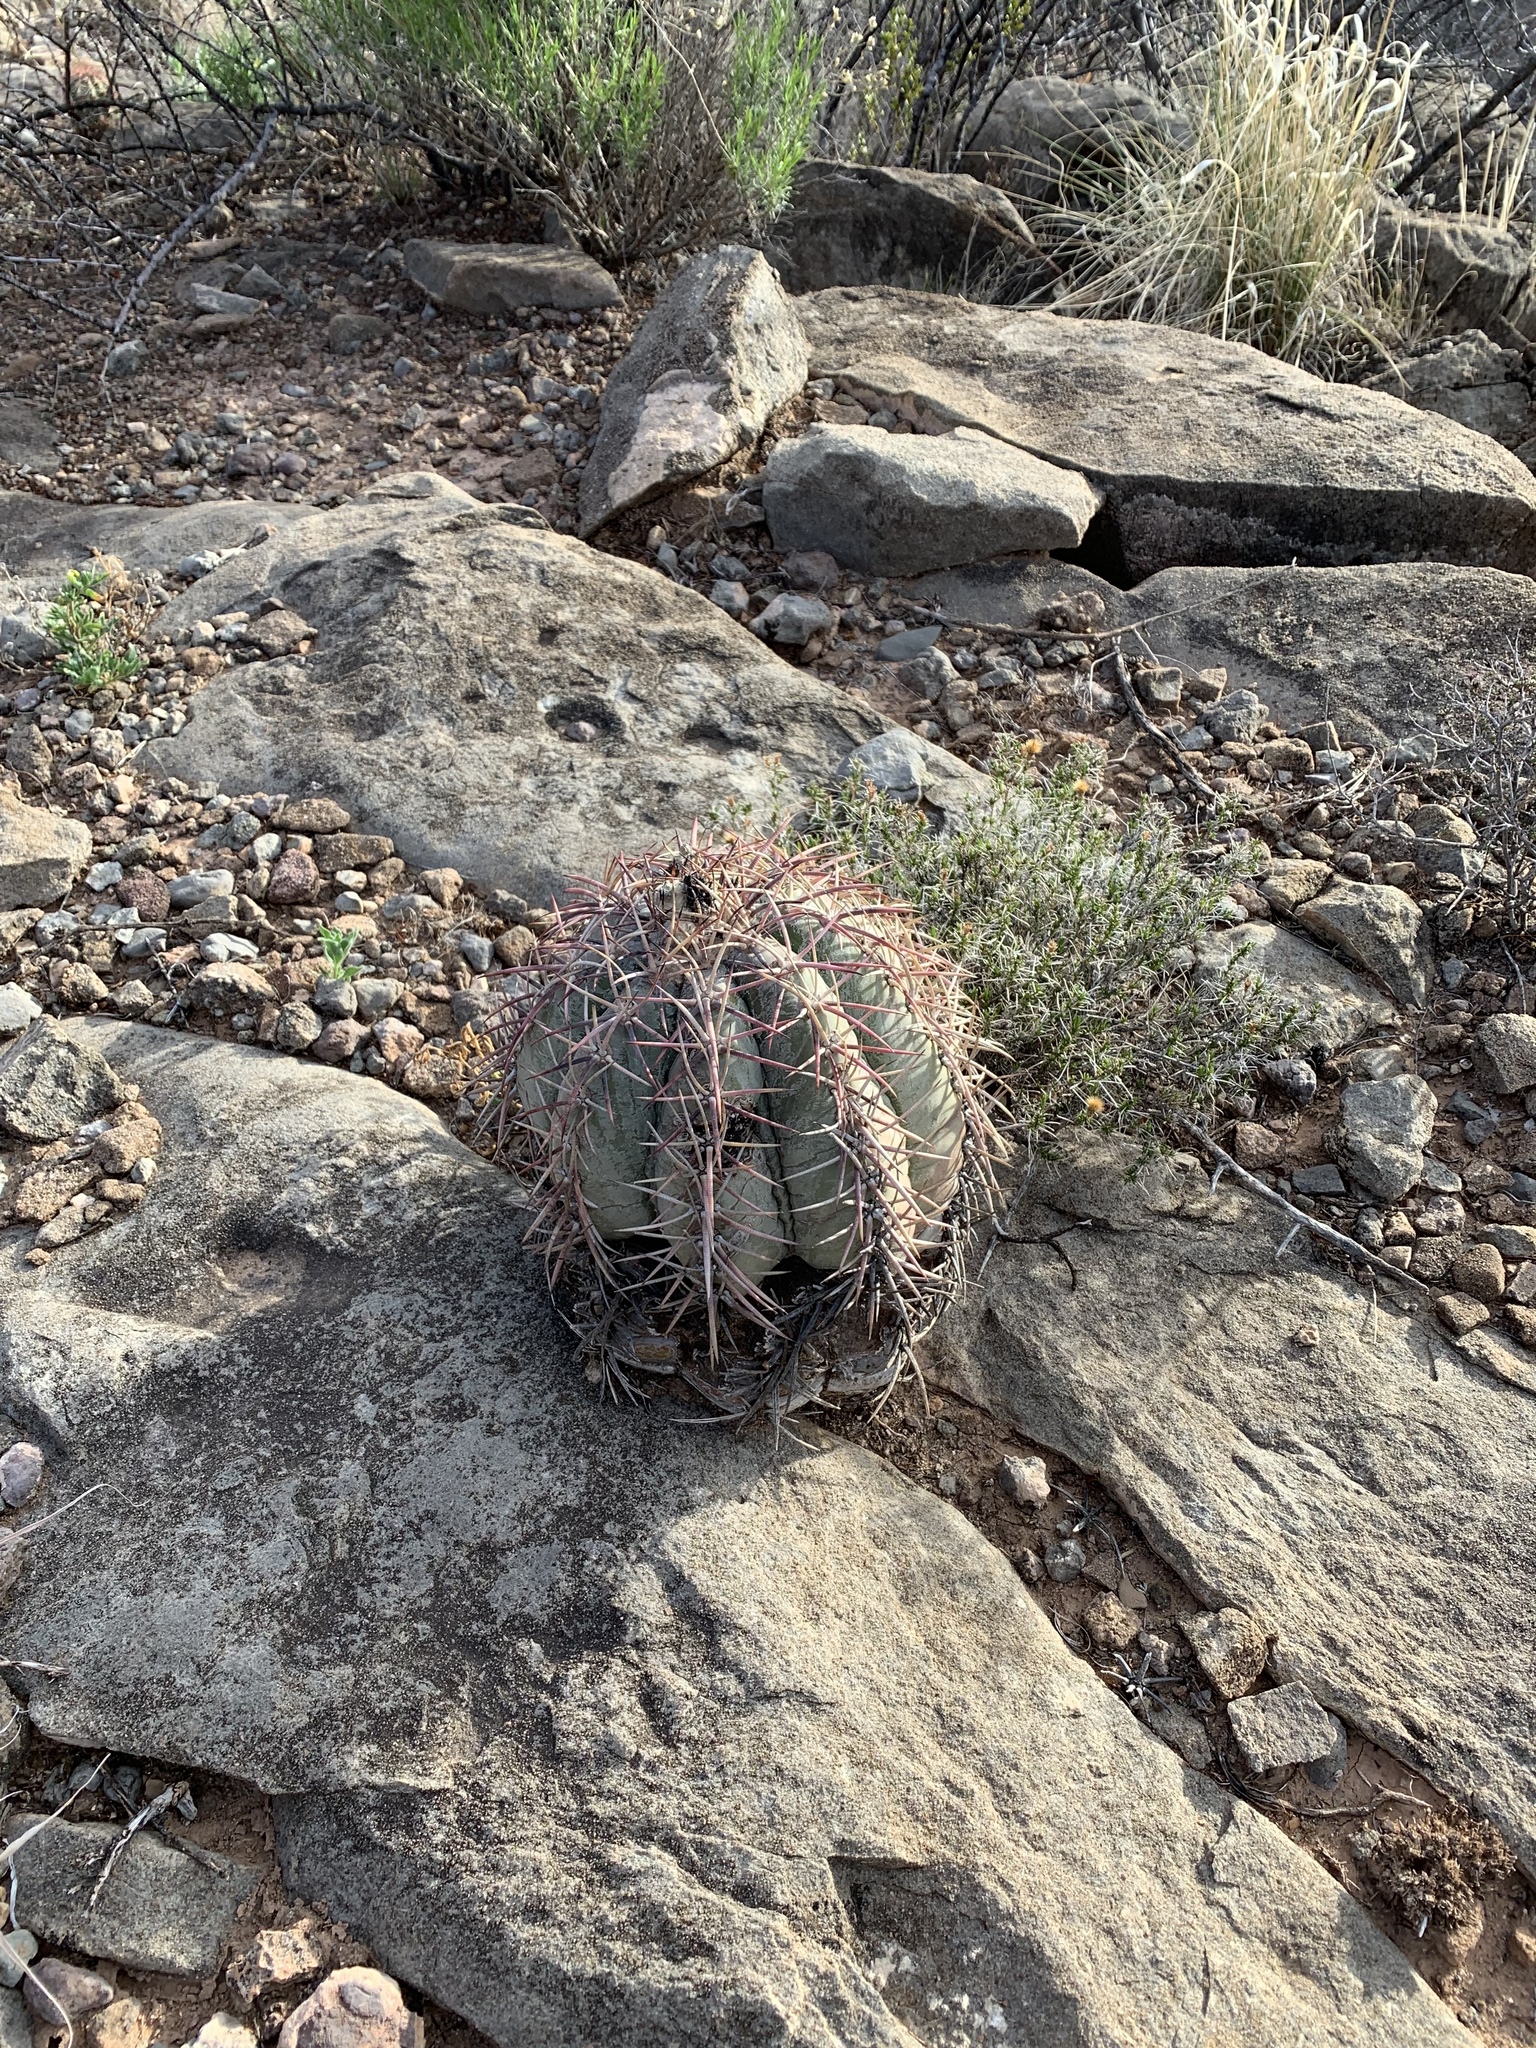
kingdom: Plantae
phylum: Tracheophyta
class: Magnoliopsida
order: Caryophyllales
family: Cactaceae
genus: Echinocactus
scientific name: Echinocactus horizonthalonius
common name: Devilshead
